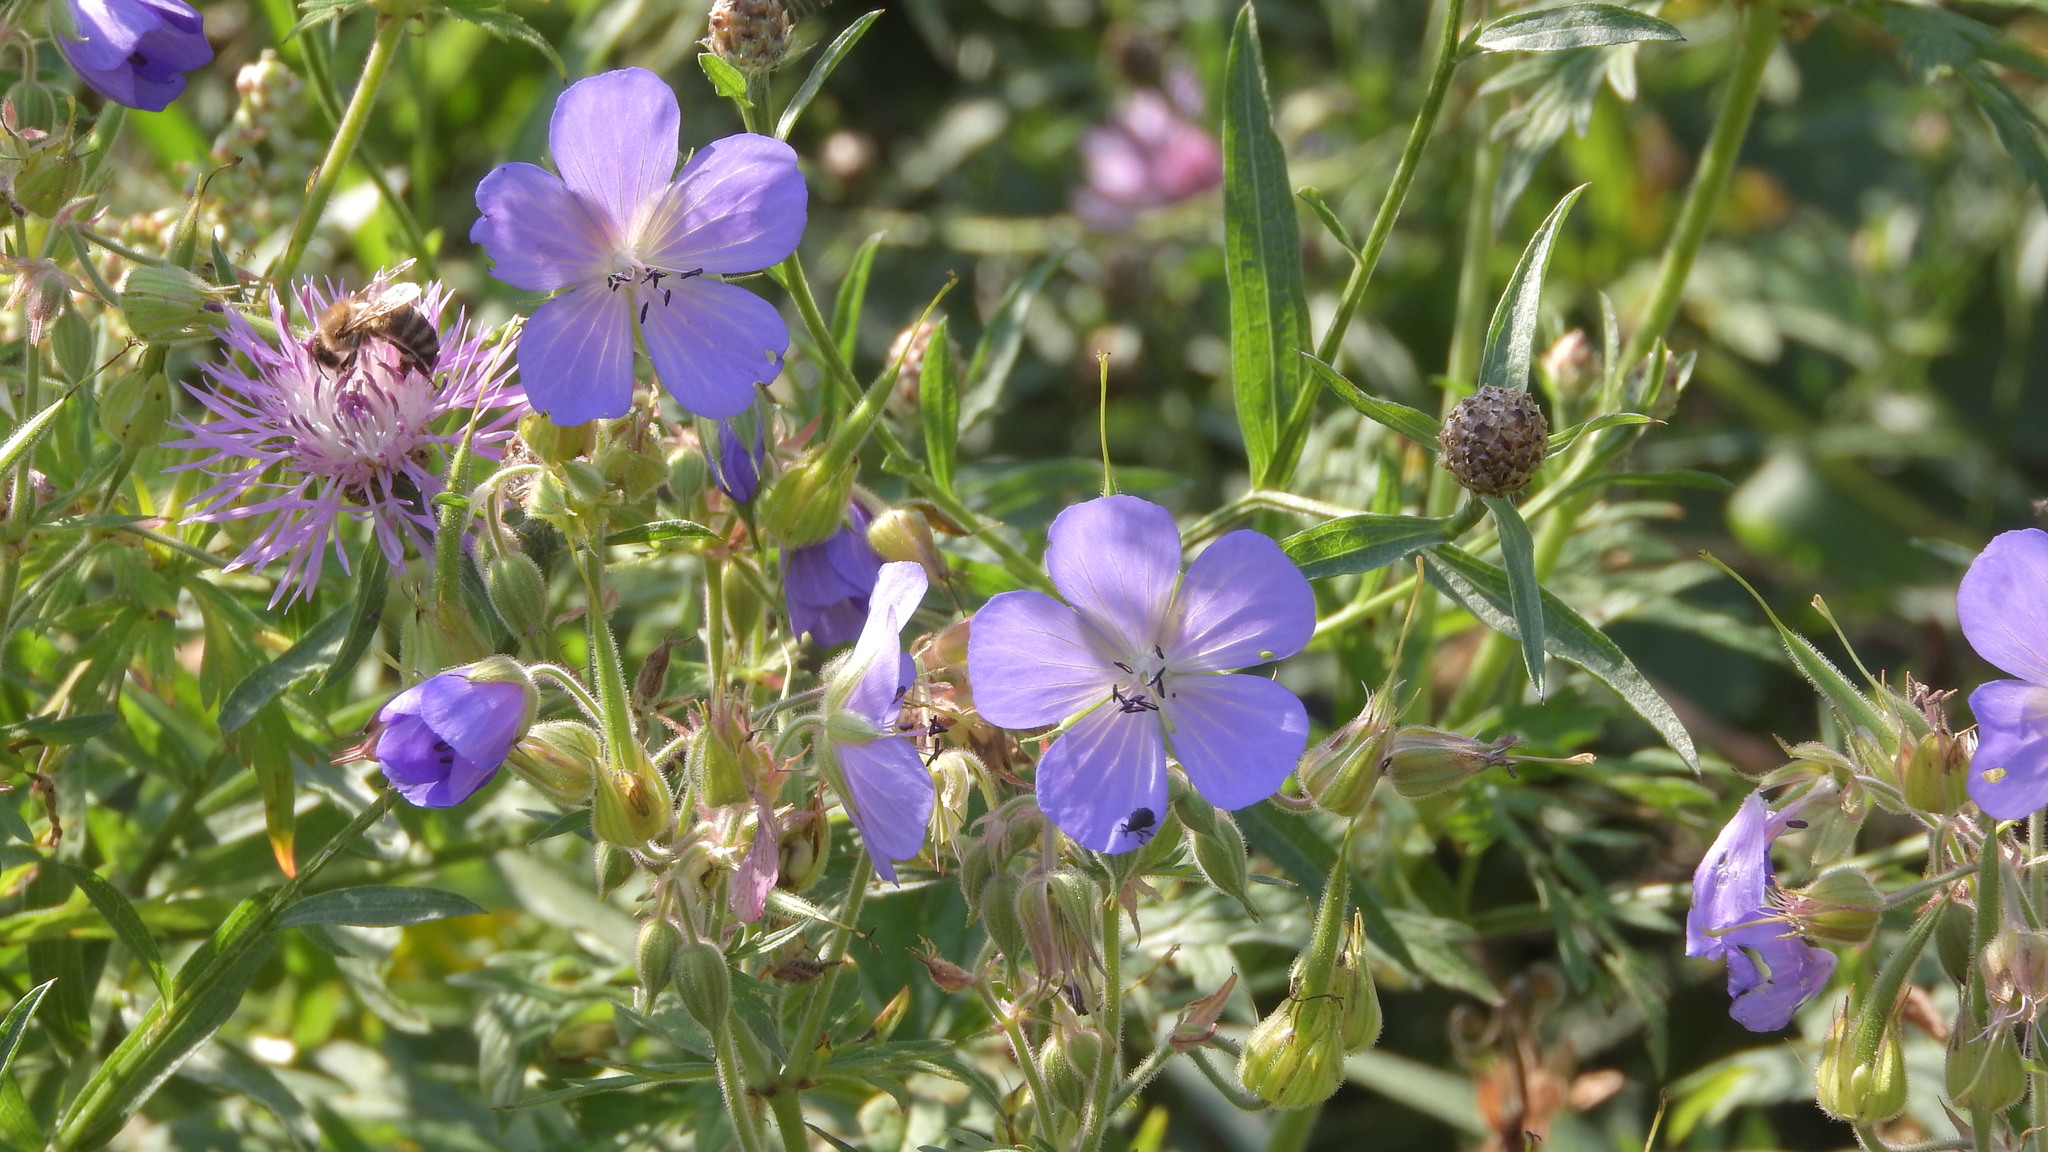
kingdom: Plantae
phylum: Tracheophyta
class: Magnoliopsida
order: Geraniales
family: Geraniaceae
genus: Geranium
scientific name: Geranium pratense
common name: Meadow crane's-bill
